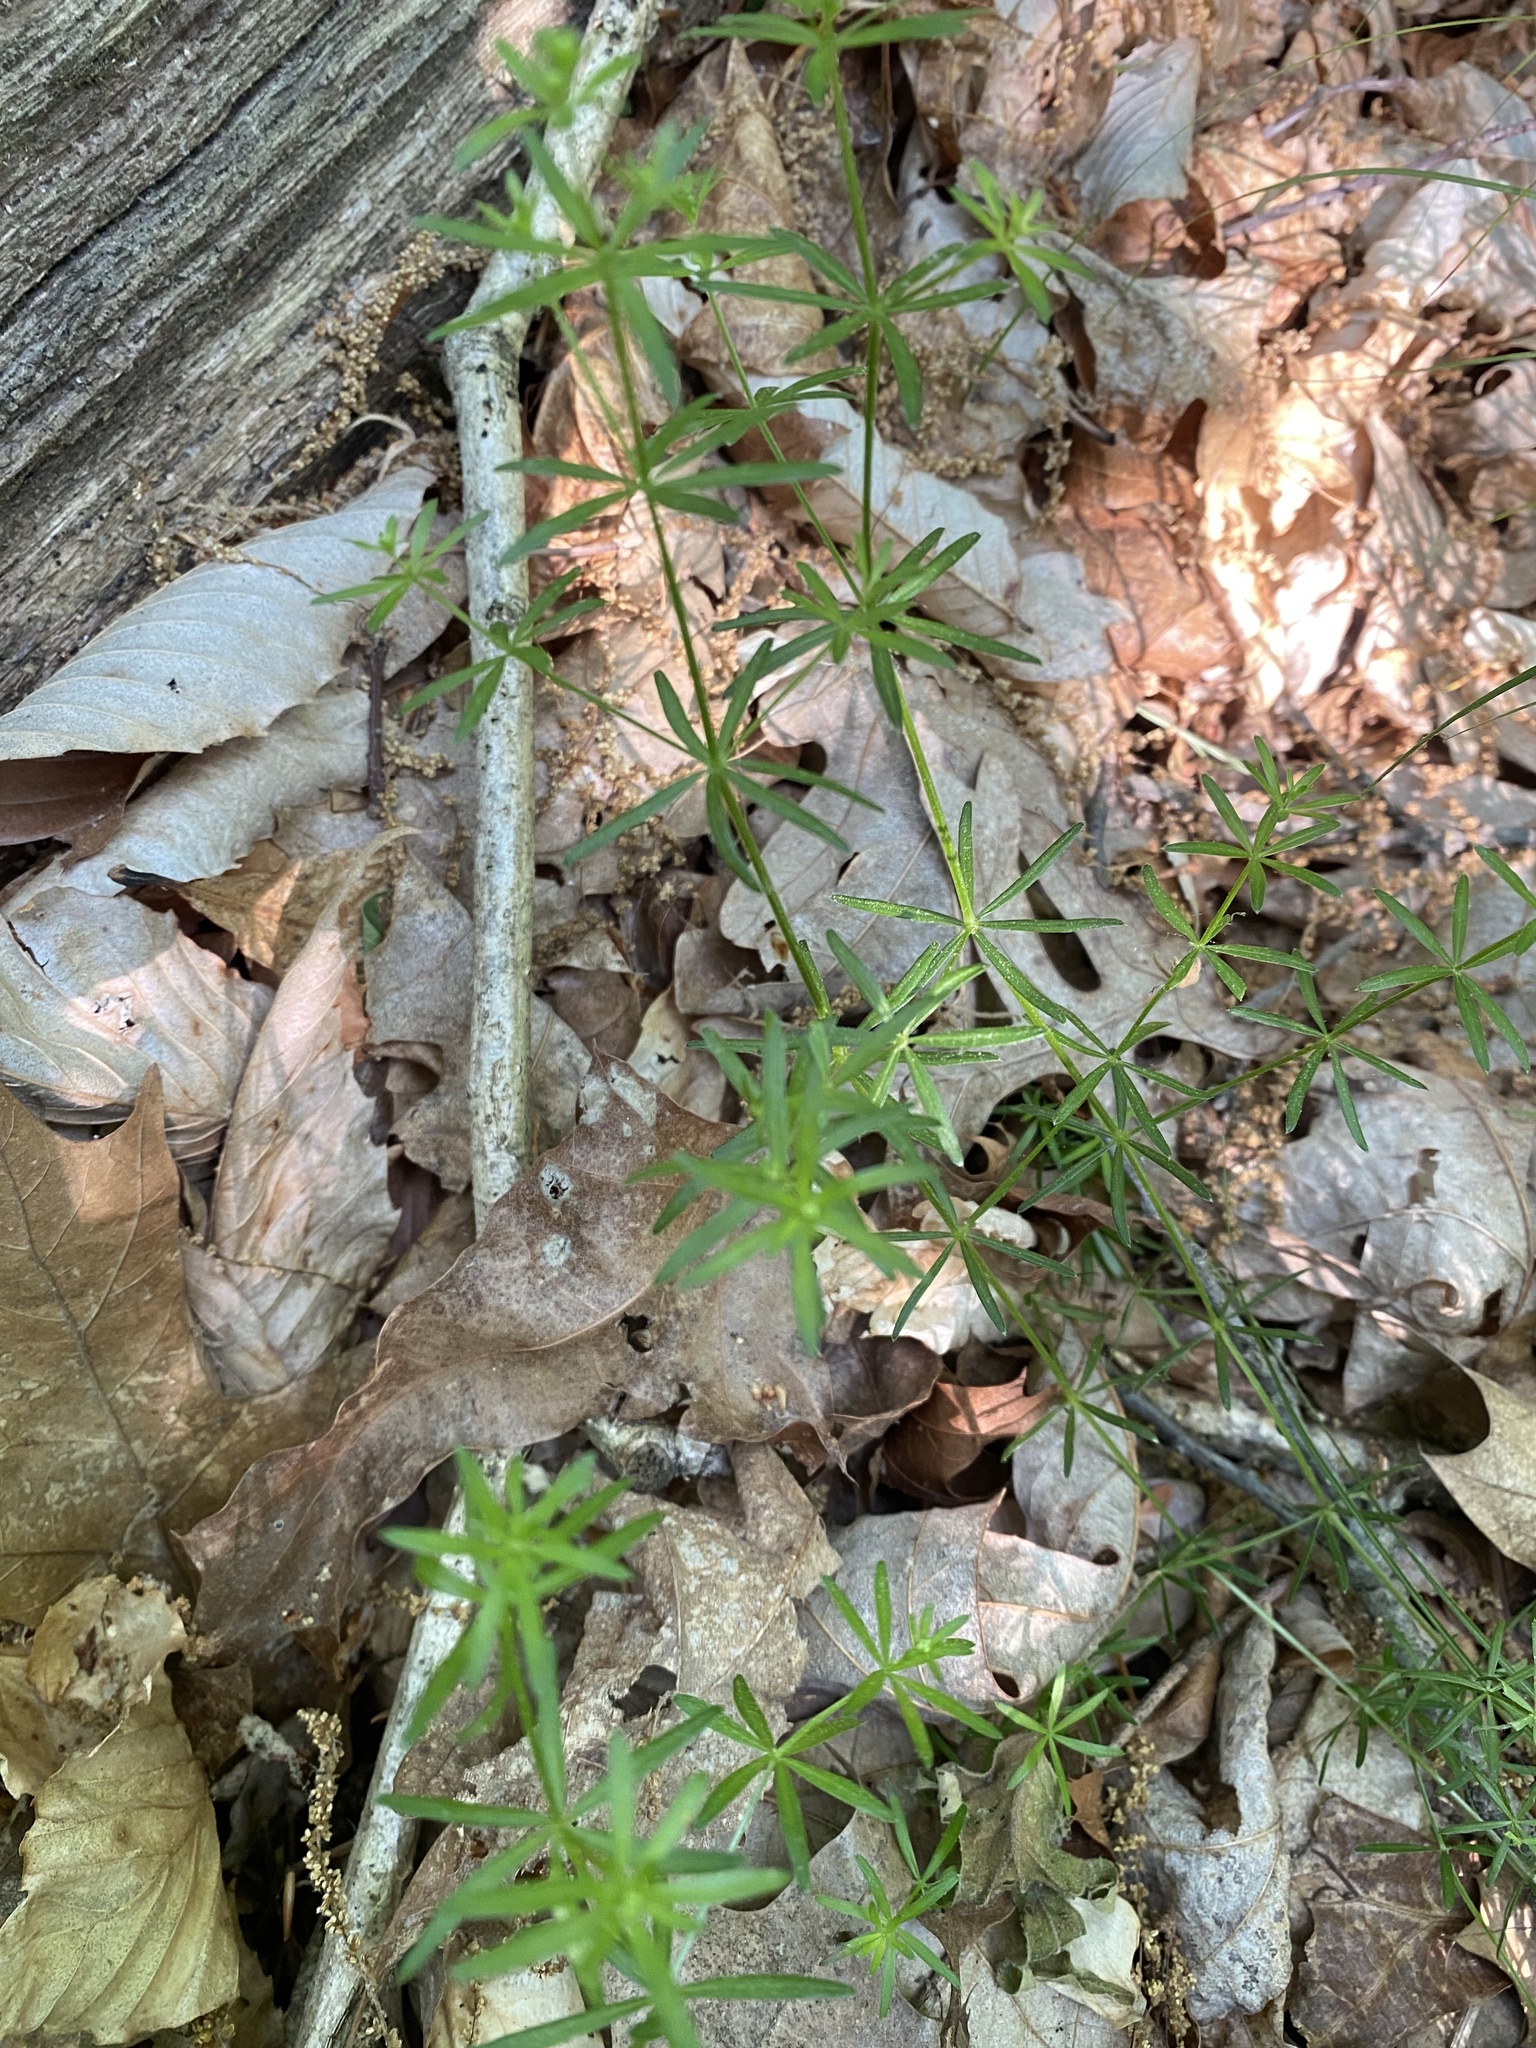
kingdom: Plantae
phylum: Tracheophyta
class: Magnoliopsida
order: Gentianales
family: Rubiaceae
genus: Galium
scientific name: Galium concinnum
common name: Shining bedstraw
